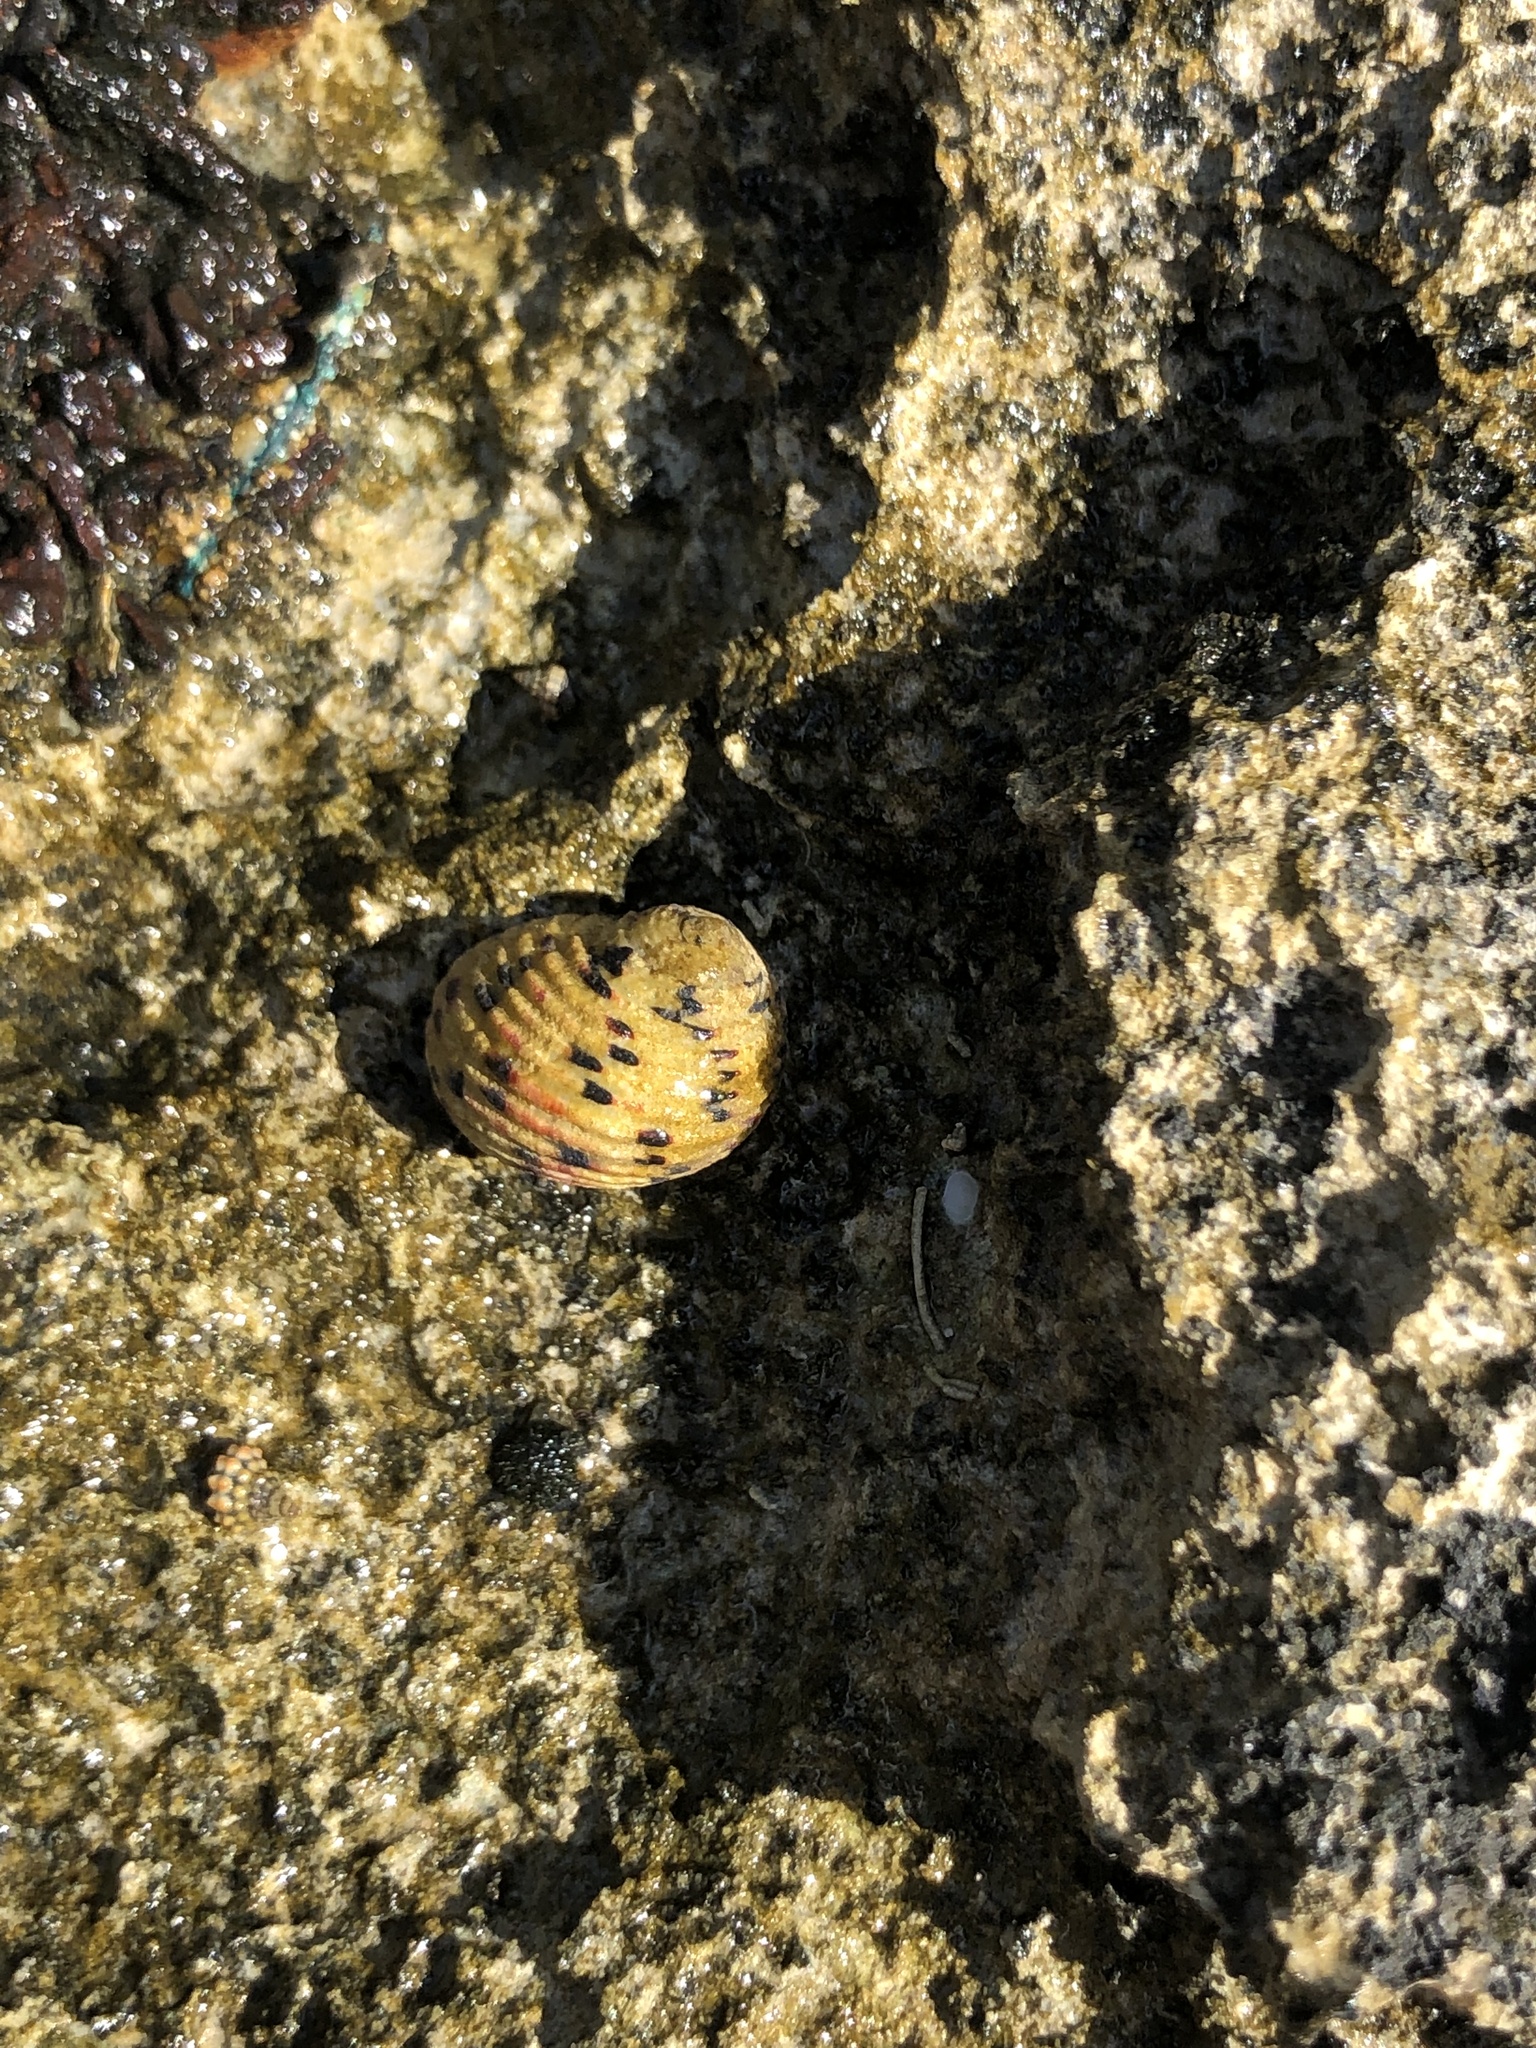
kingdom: Animalia
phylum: Mollusca
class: Gastropoda
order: Cycloneritida
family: Neritidae
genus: Nerita
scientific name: Nerita versicolor
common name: Four-tooth nerite
